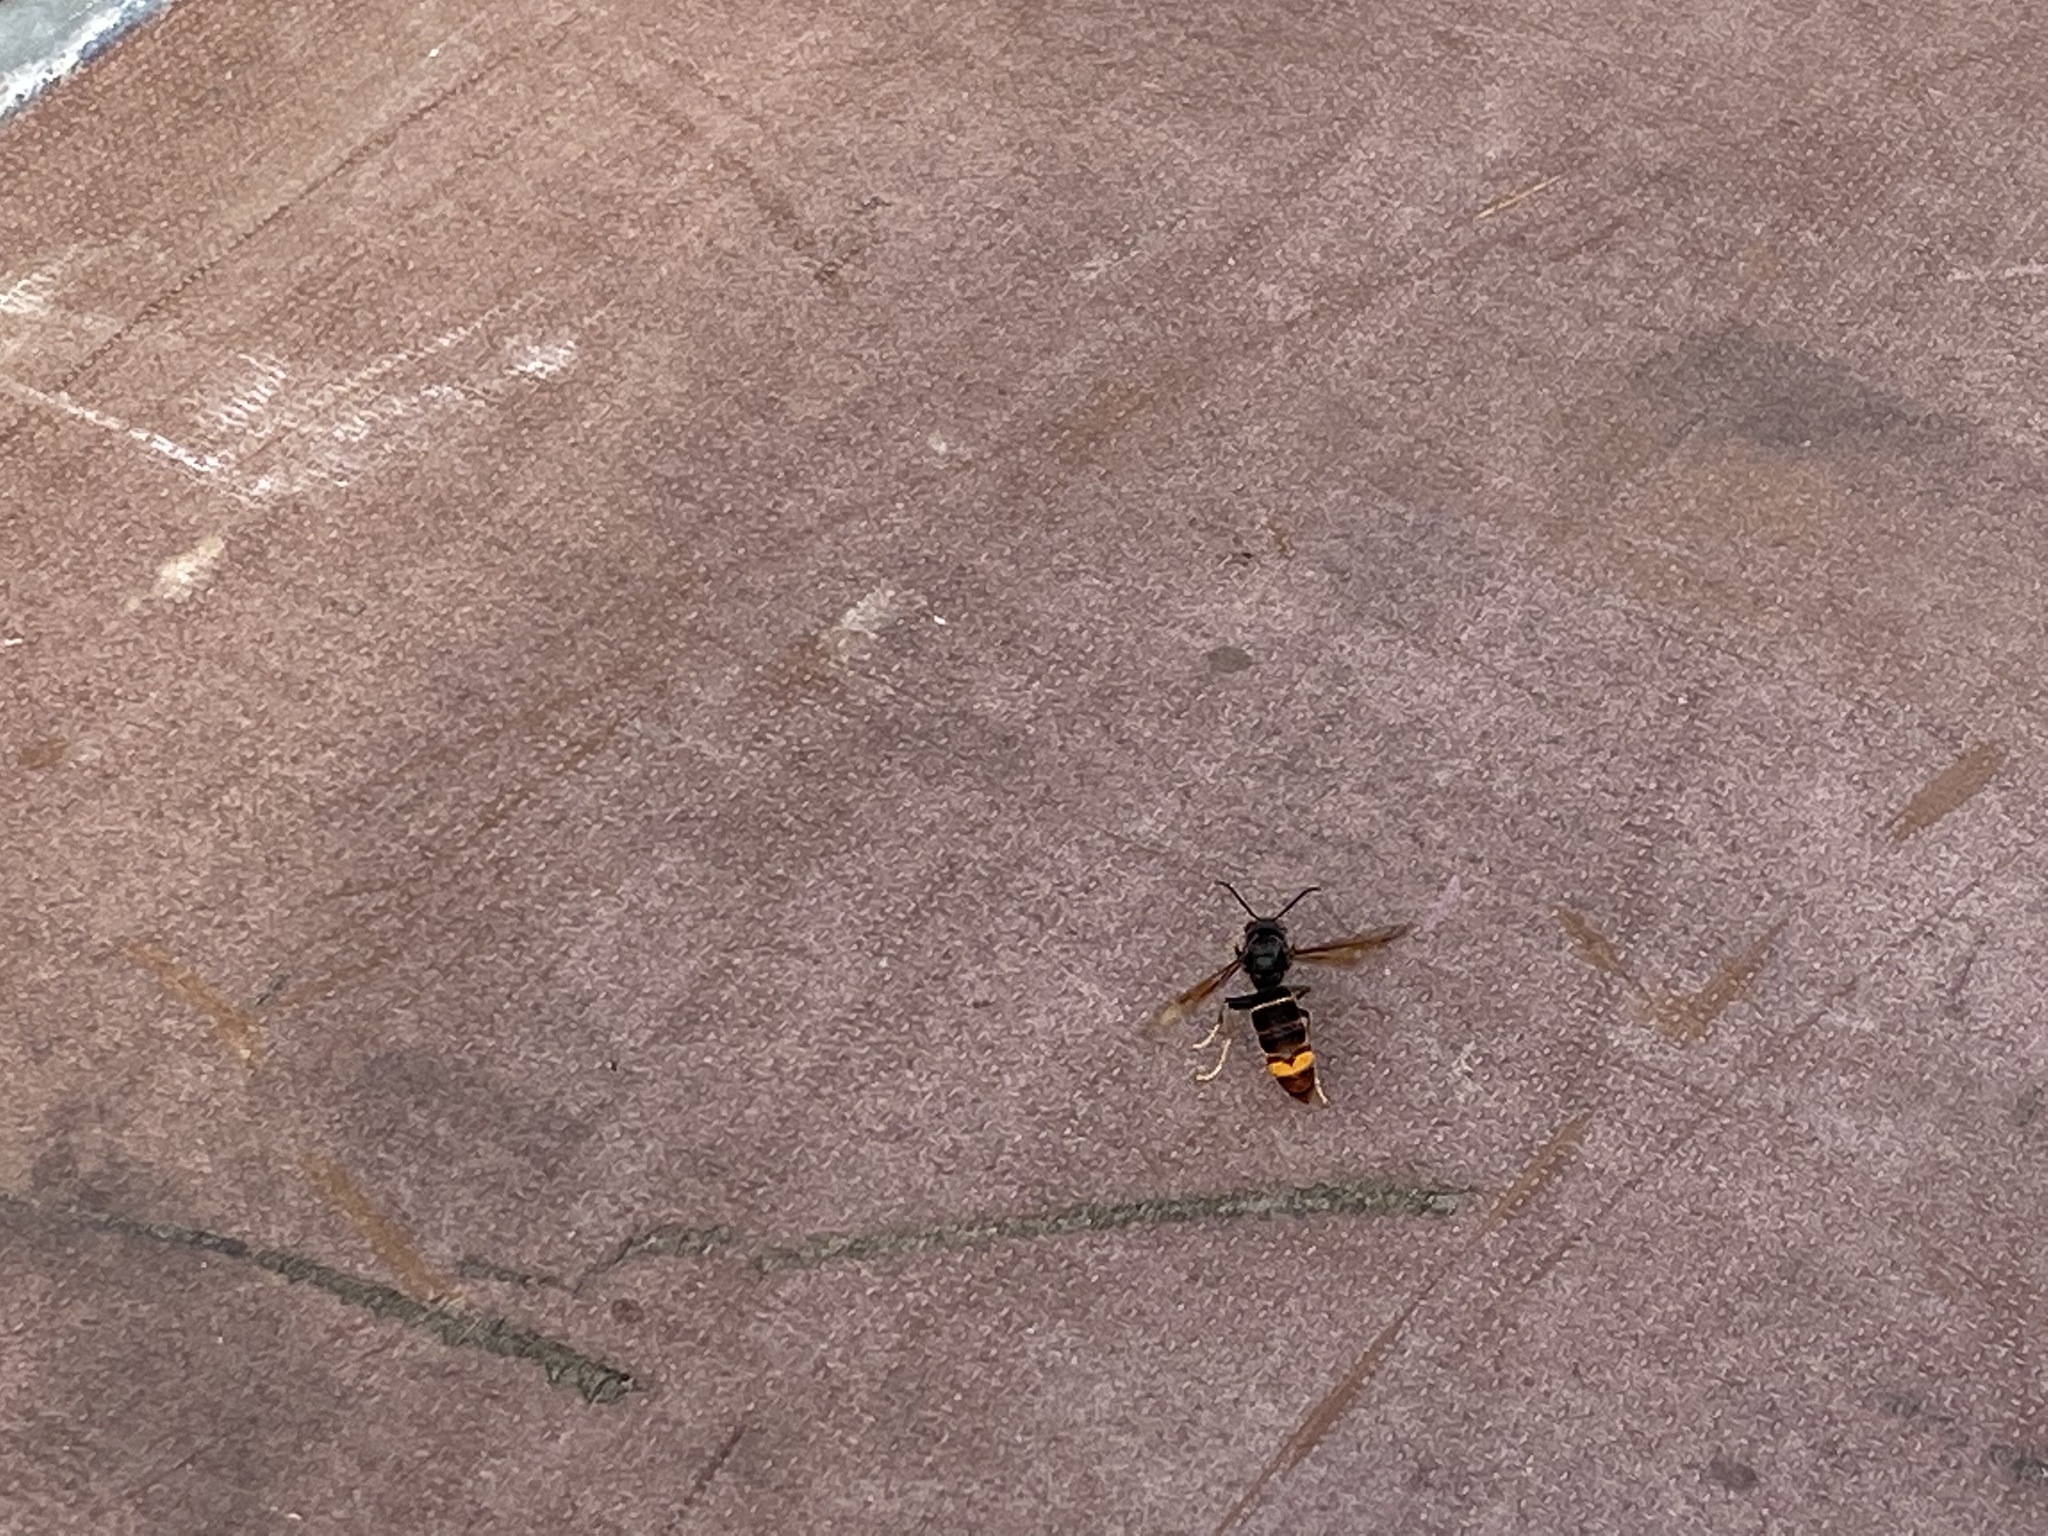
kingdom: Animalia
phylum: Arthropoda
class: Insecta
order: Hymenoptera
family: Vespidae
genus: Vespa
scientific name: Vespa velutina
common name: Asian hornet
